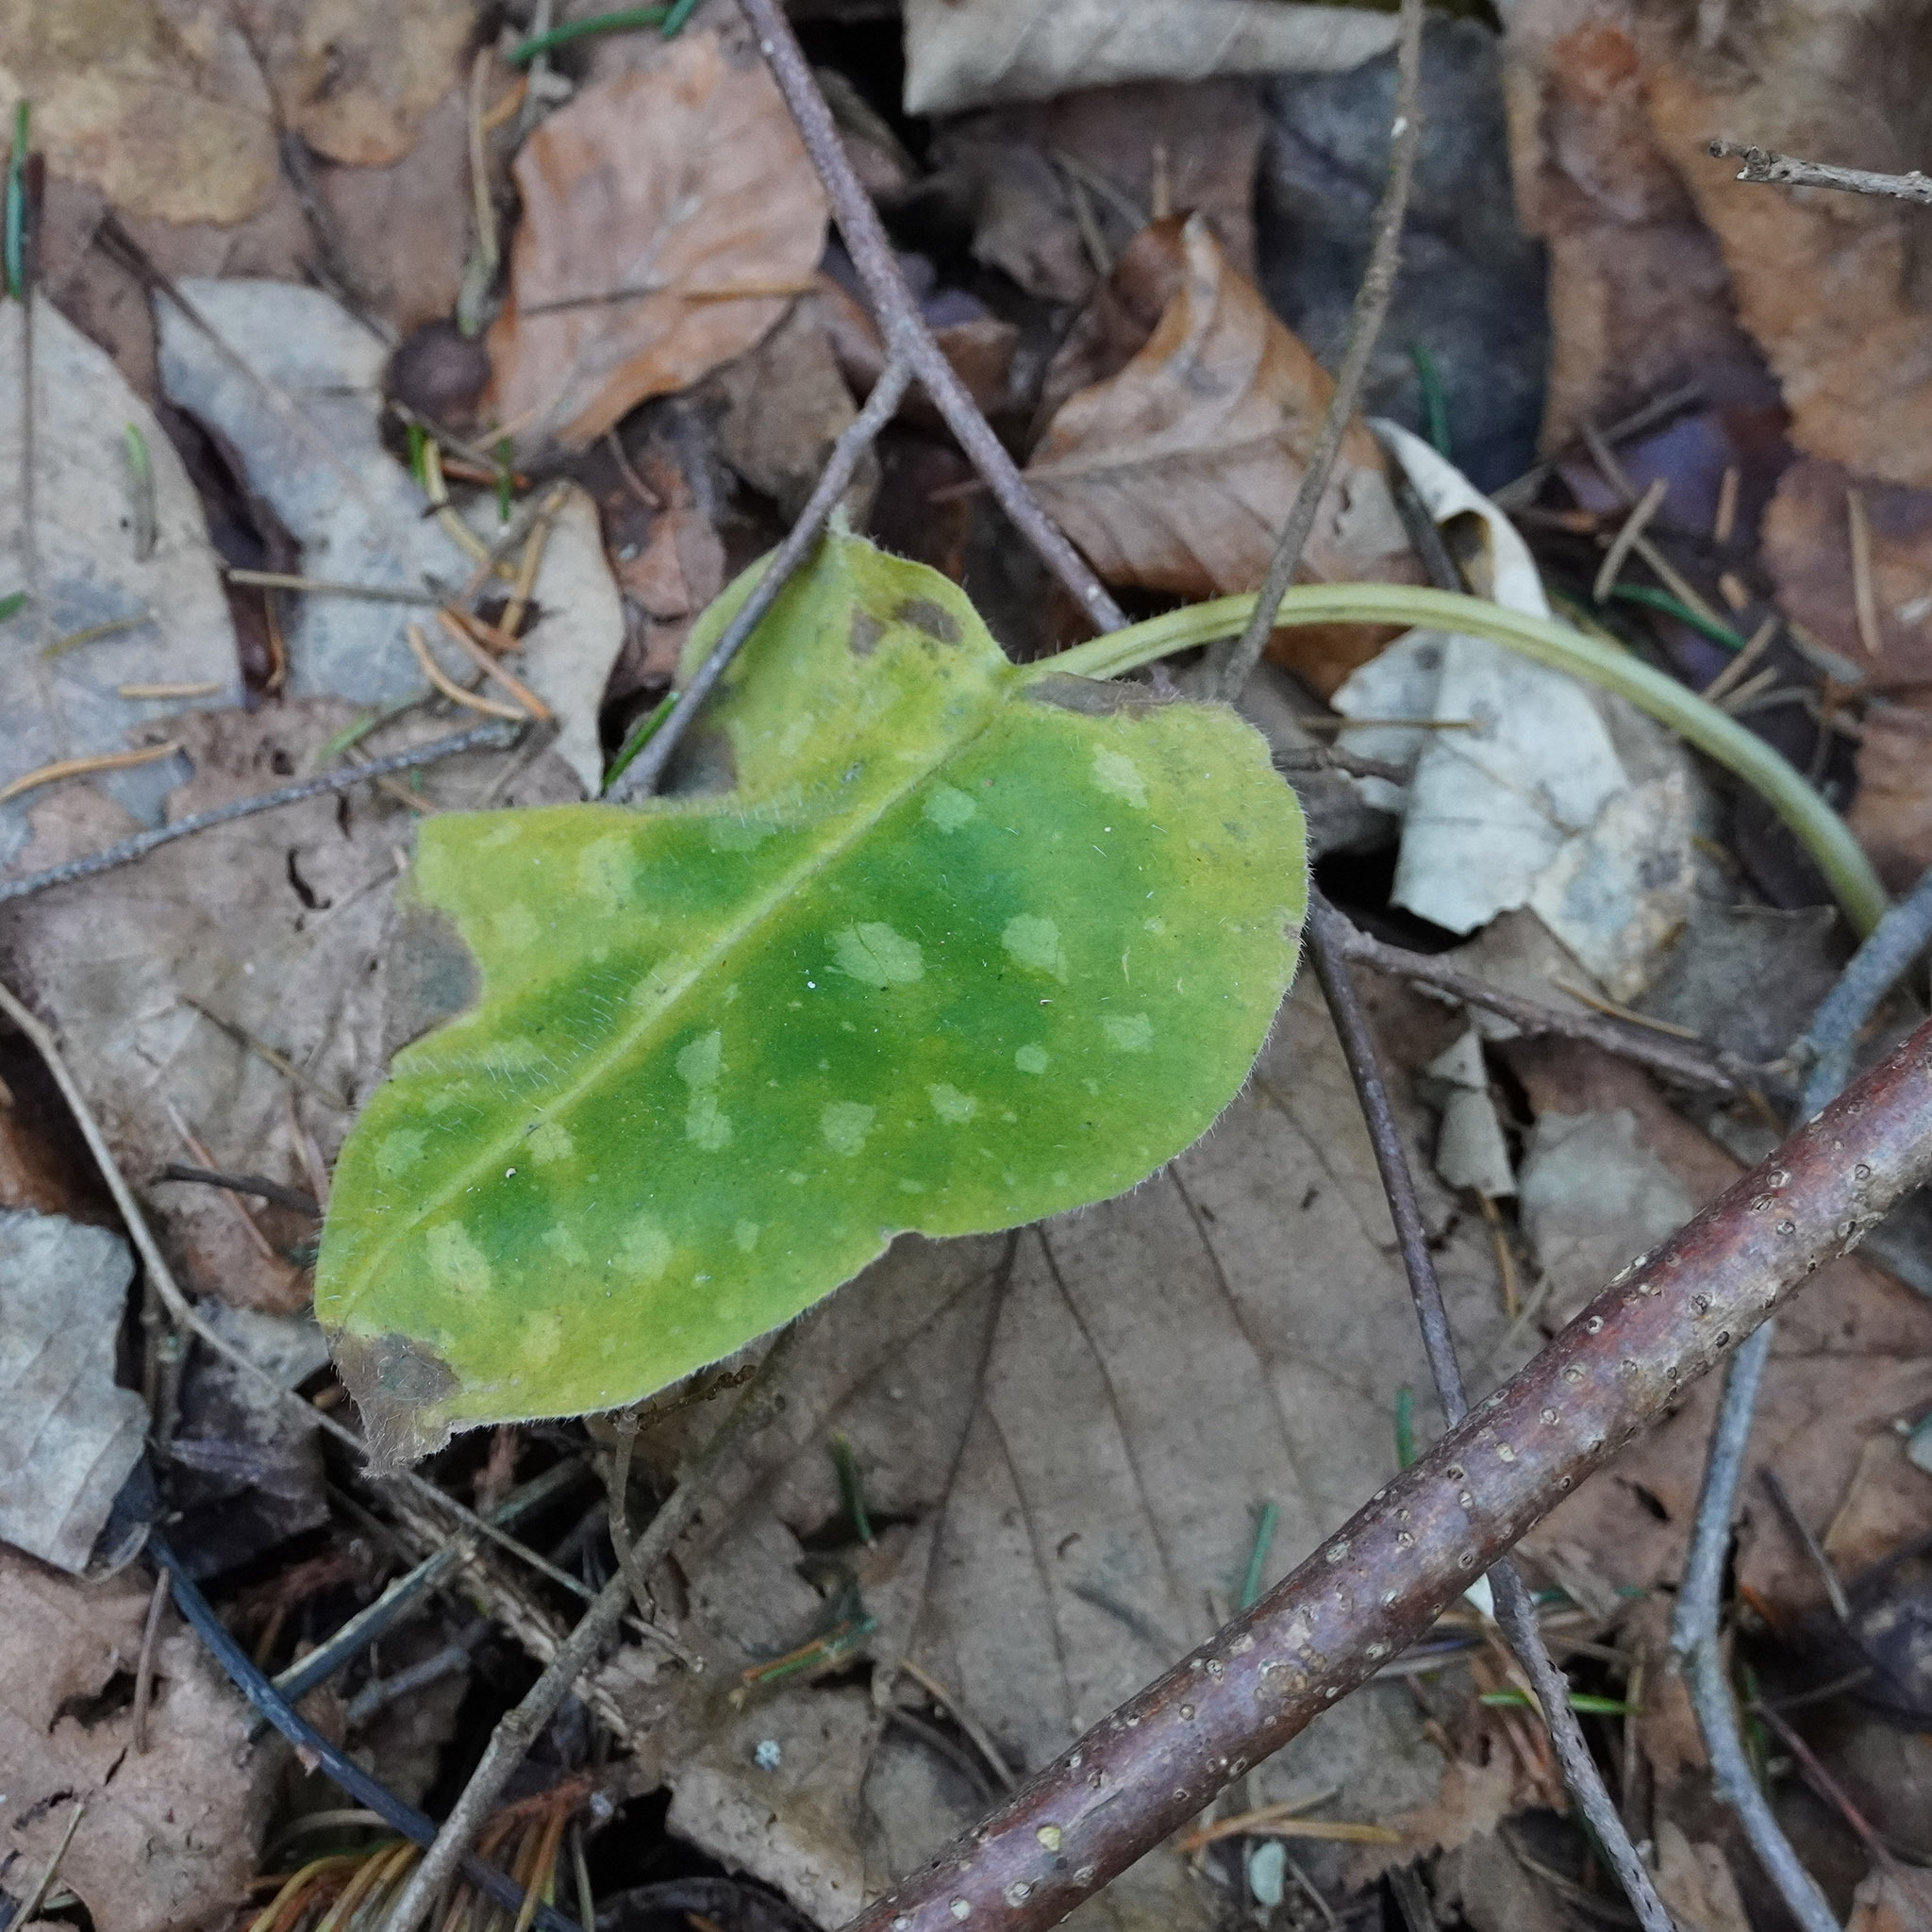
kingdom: Plantae
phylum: Tracheophyta
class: Magnoliopsida
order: Boraginales
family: Boraginaceae
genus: Pulmonaria
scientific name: Pulmonaria officinalis
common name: Lungwort
